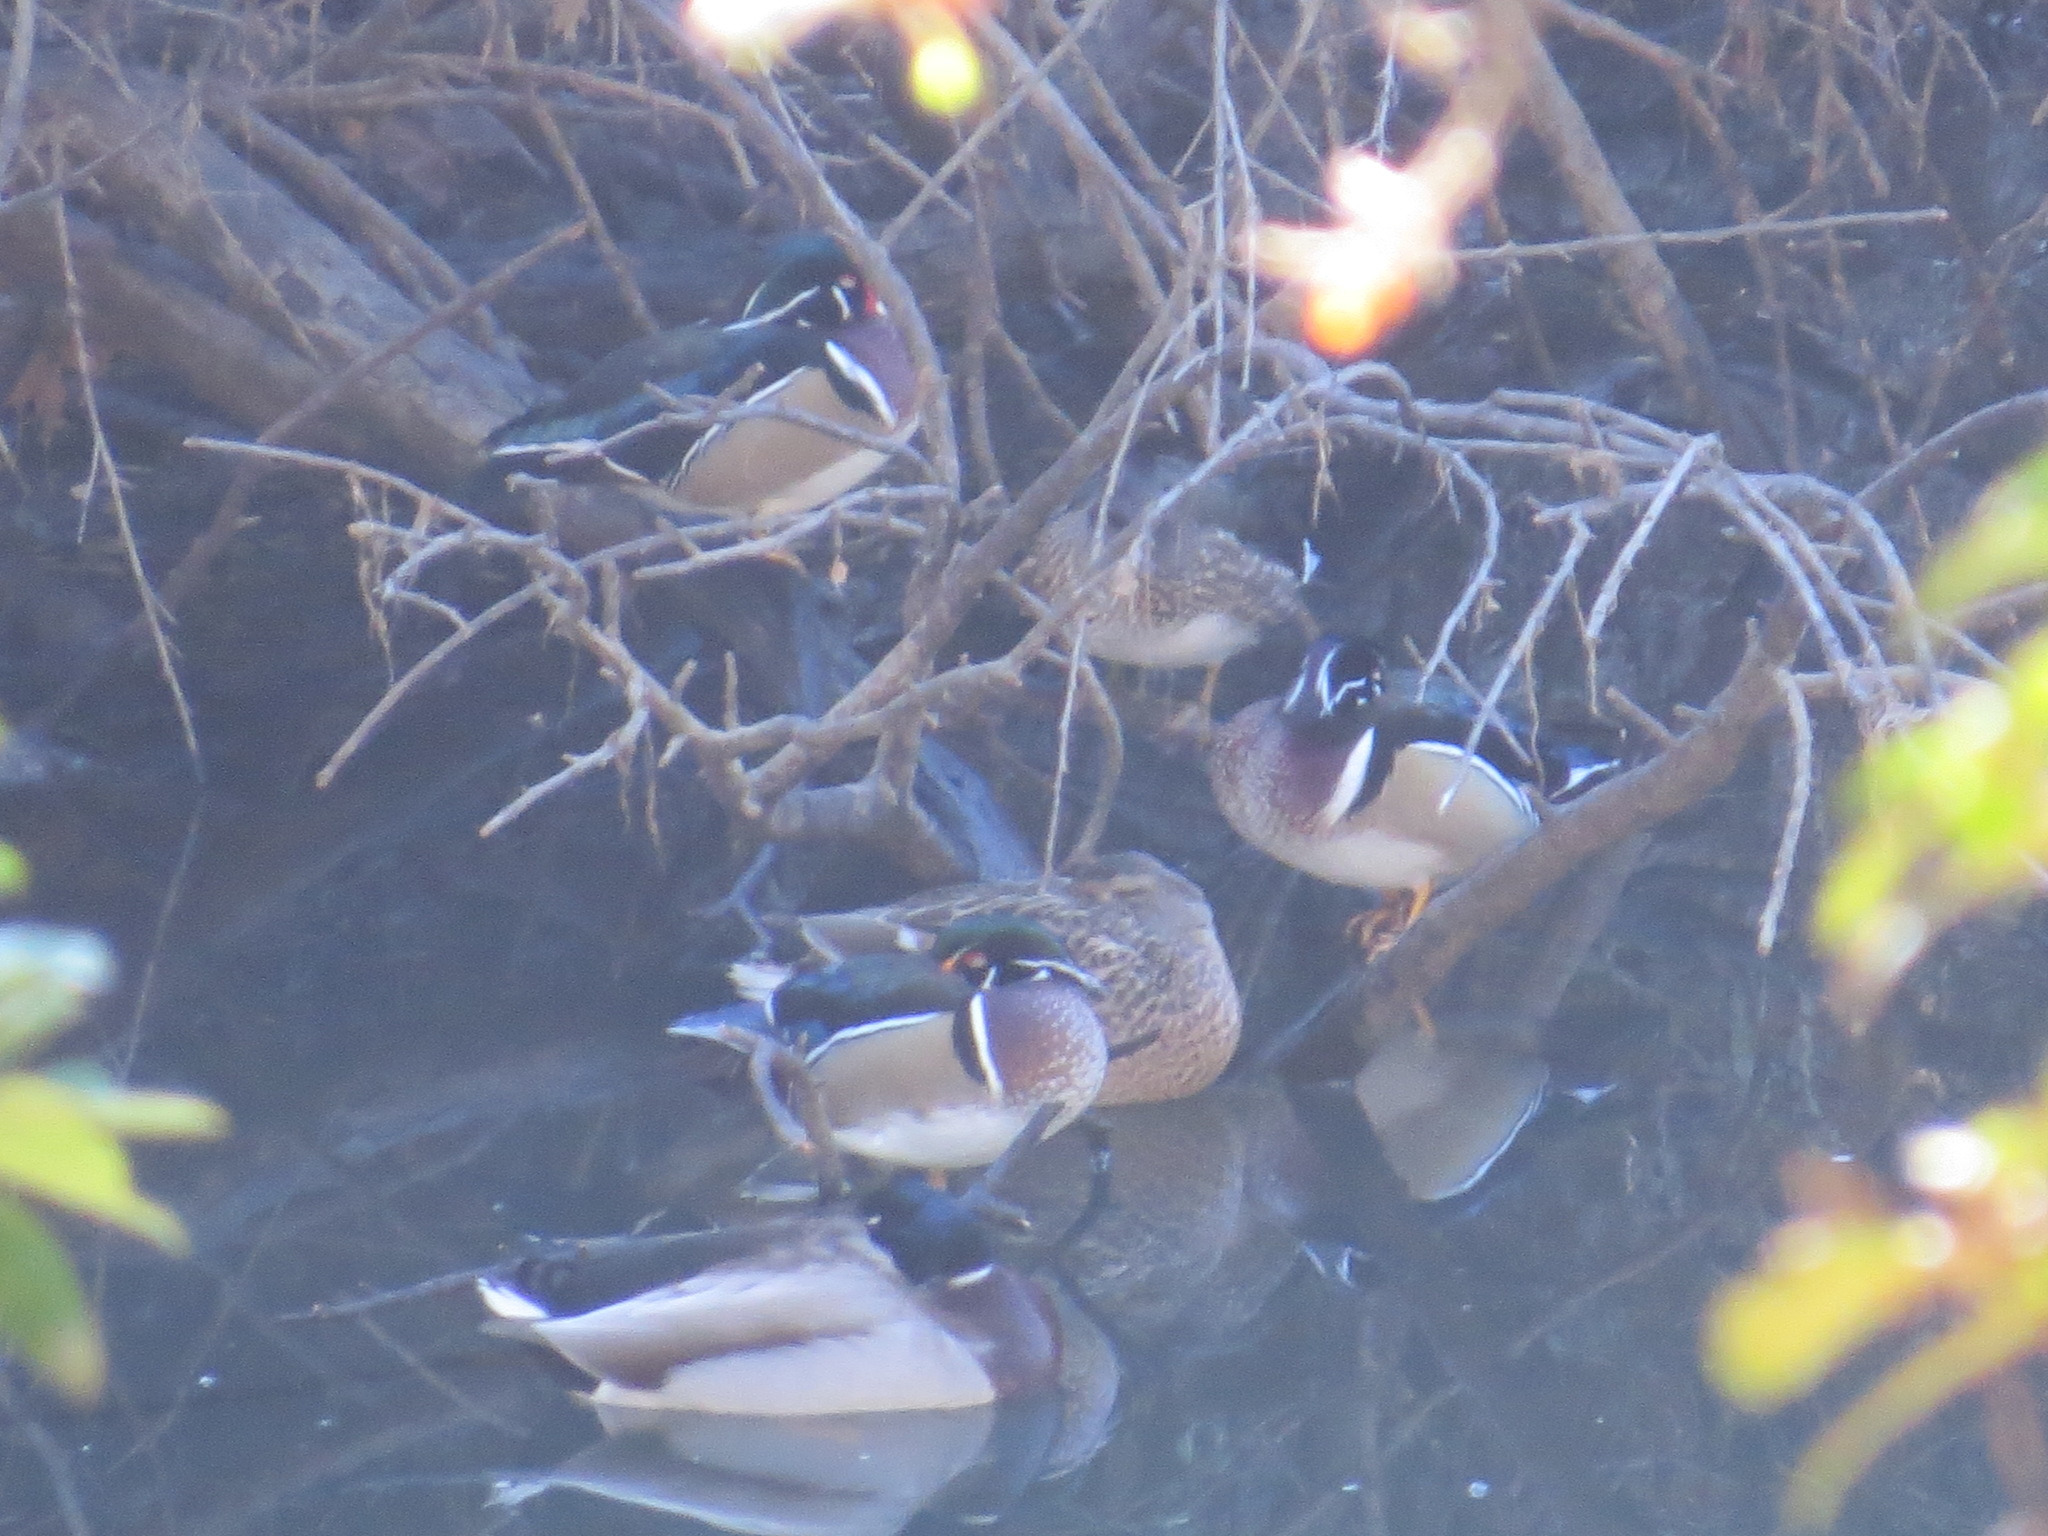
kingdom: Animalia
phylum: Chordata
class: Aves
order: Anseriformes
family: Anatidae
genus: Aix
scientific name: Aix sponsa
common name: Wood duck
